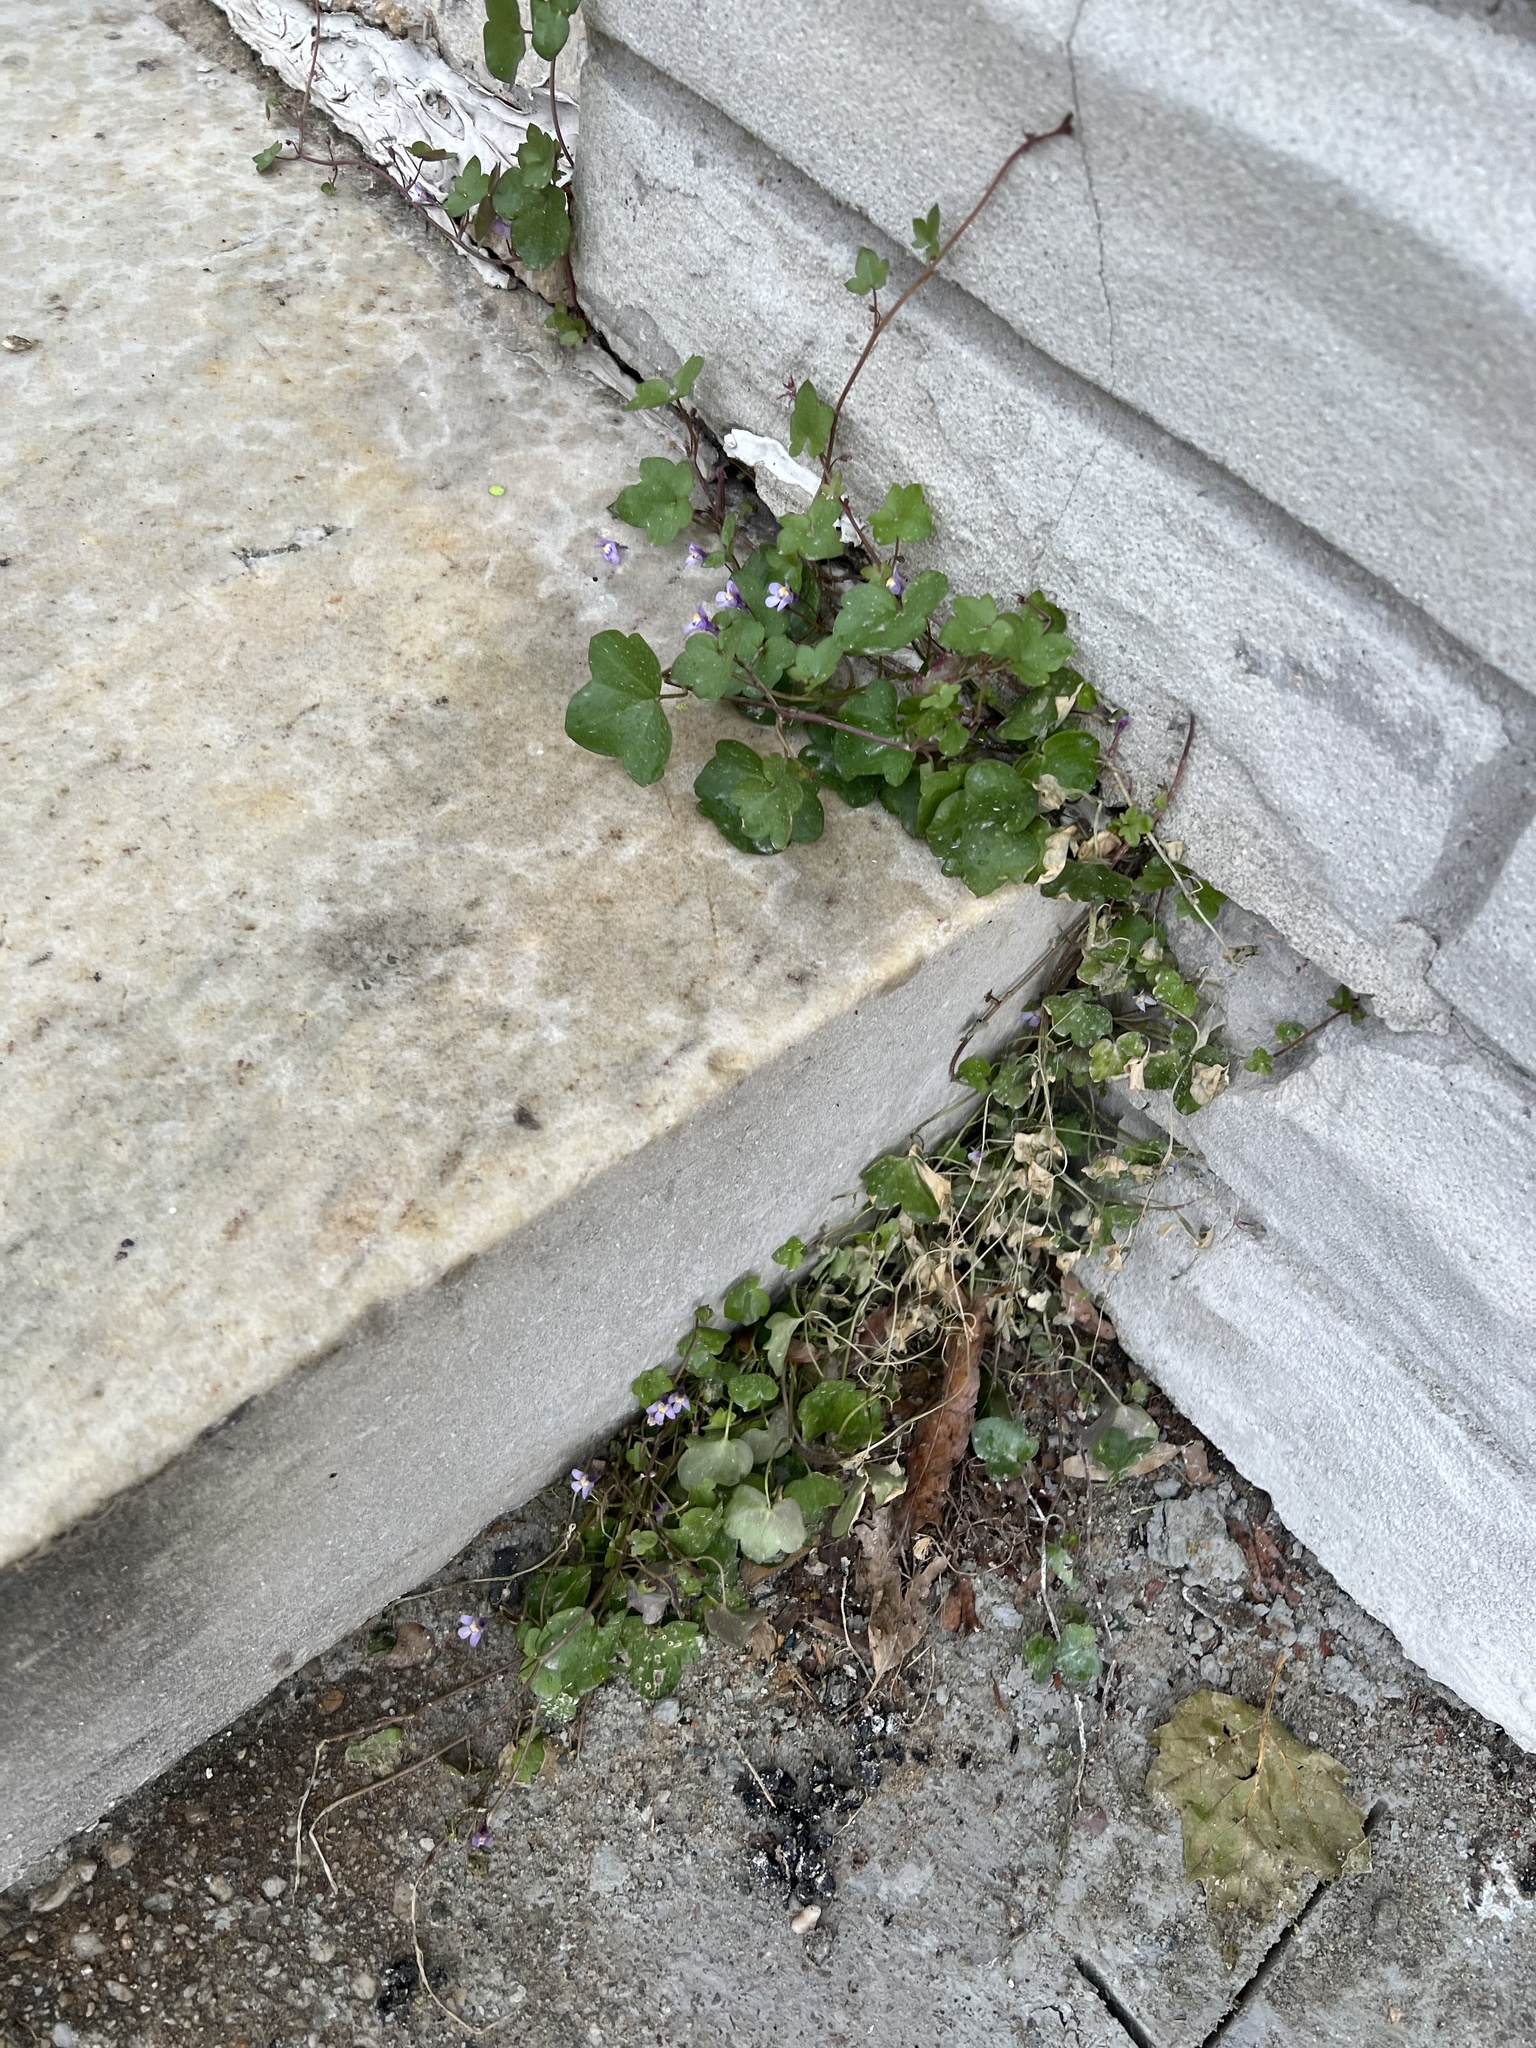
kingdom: Plantae
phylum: Tracheophyta
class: Magnoliopsida
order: Lamiales
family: Plantaginaceae
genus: Cymbalaria
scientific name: Cymbalaria muralis
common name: Ivy-leaved toadflax
